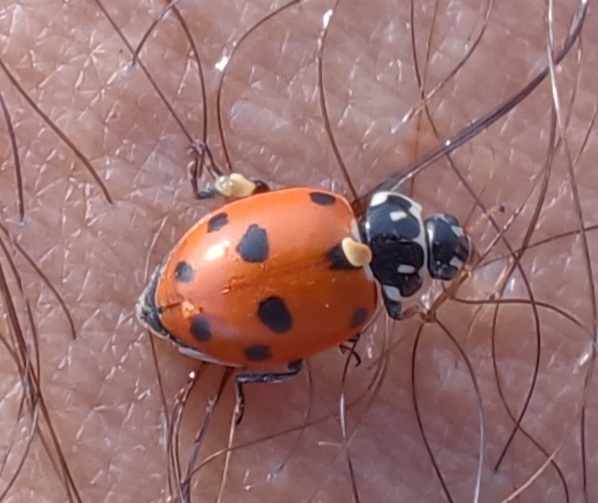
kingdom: Animalia
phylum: Arthropoda
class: Insecta
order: Coleoptera
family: Coccinellidae
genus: Hippodamia
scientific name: Hippodamia variegata
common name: Ladybird beetle
